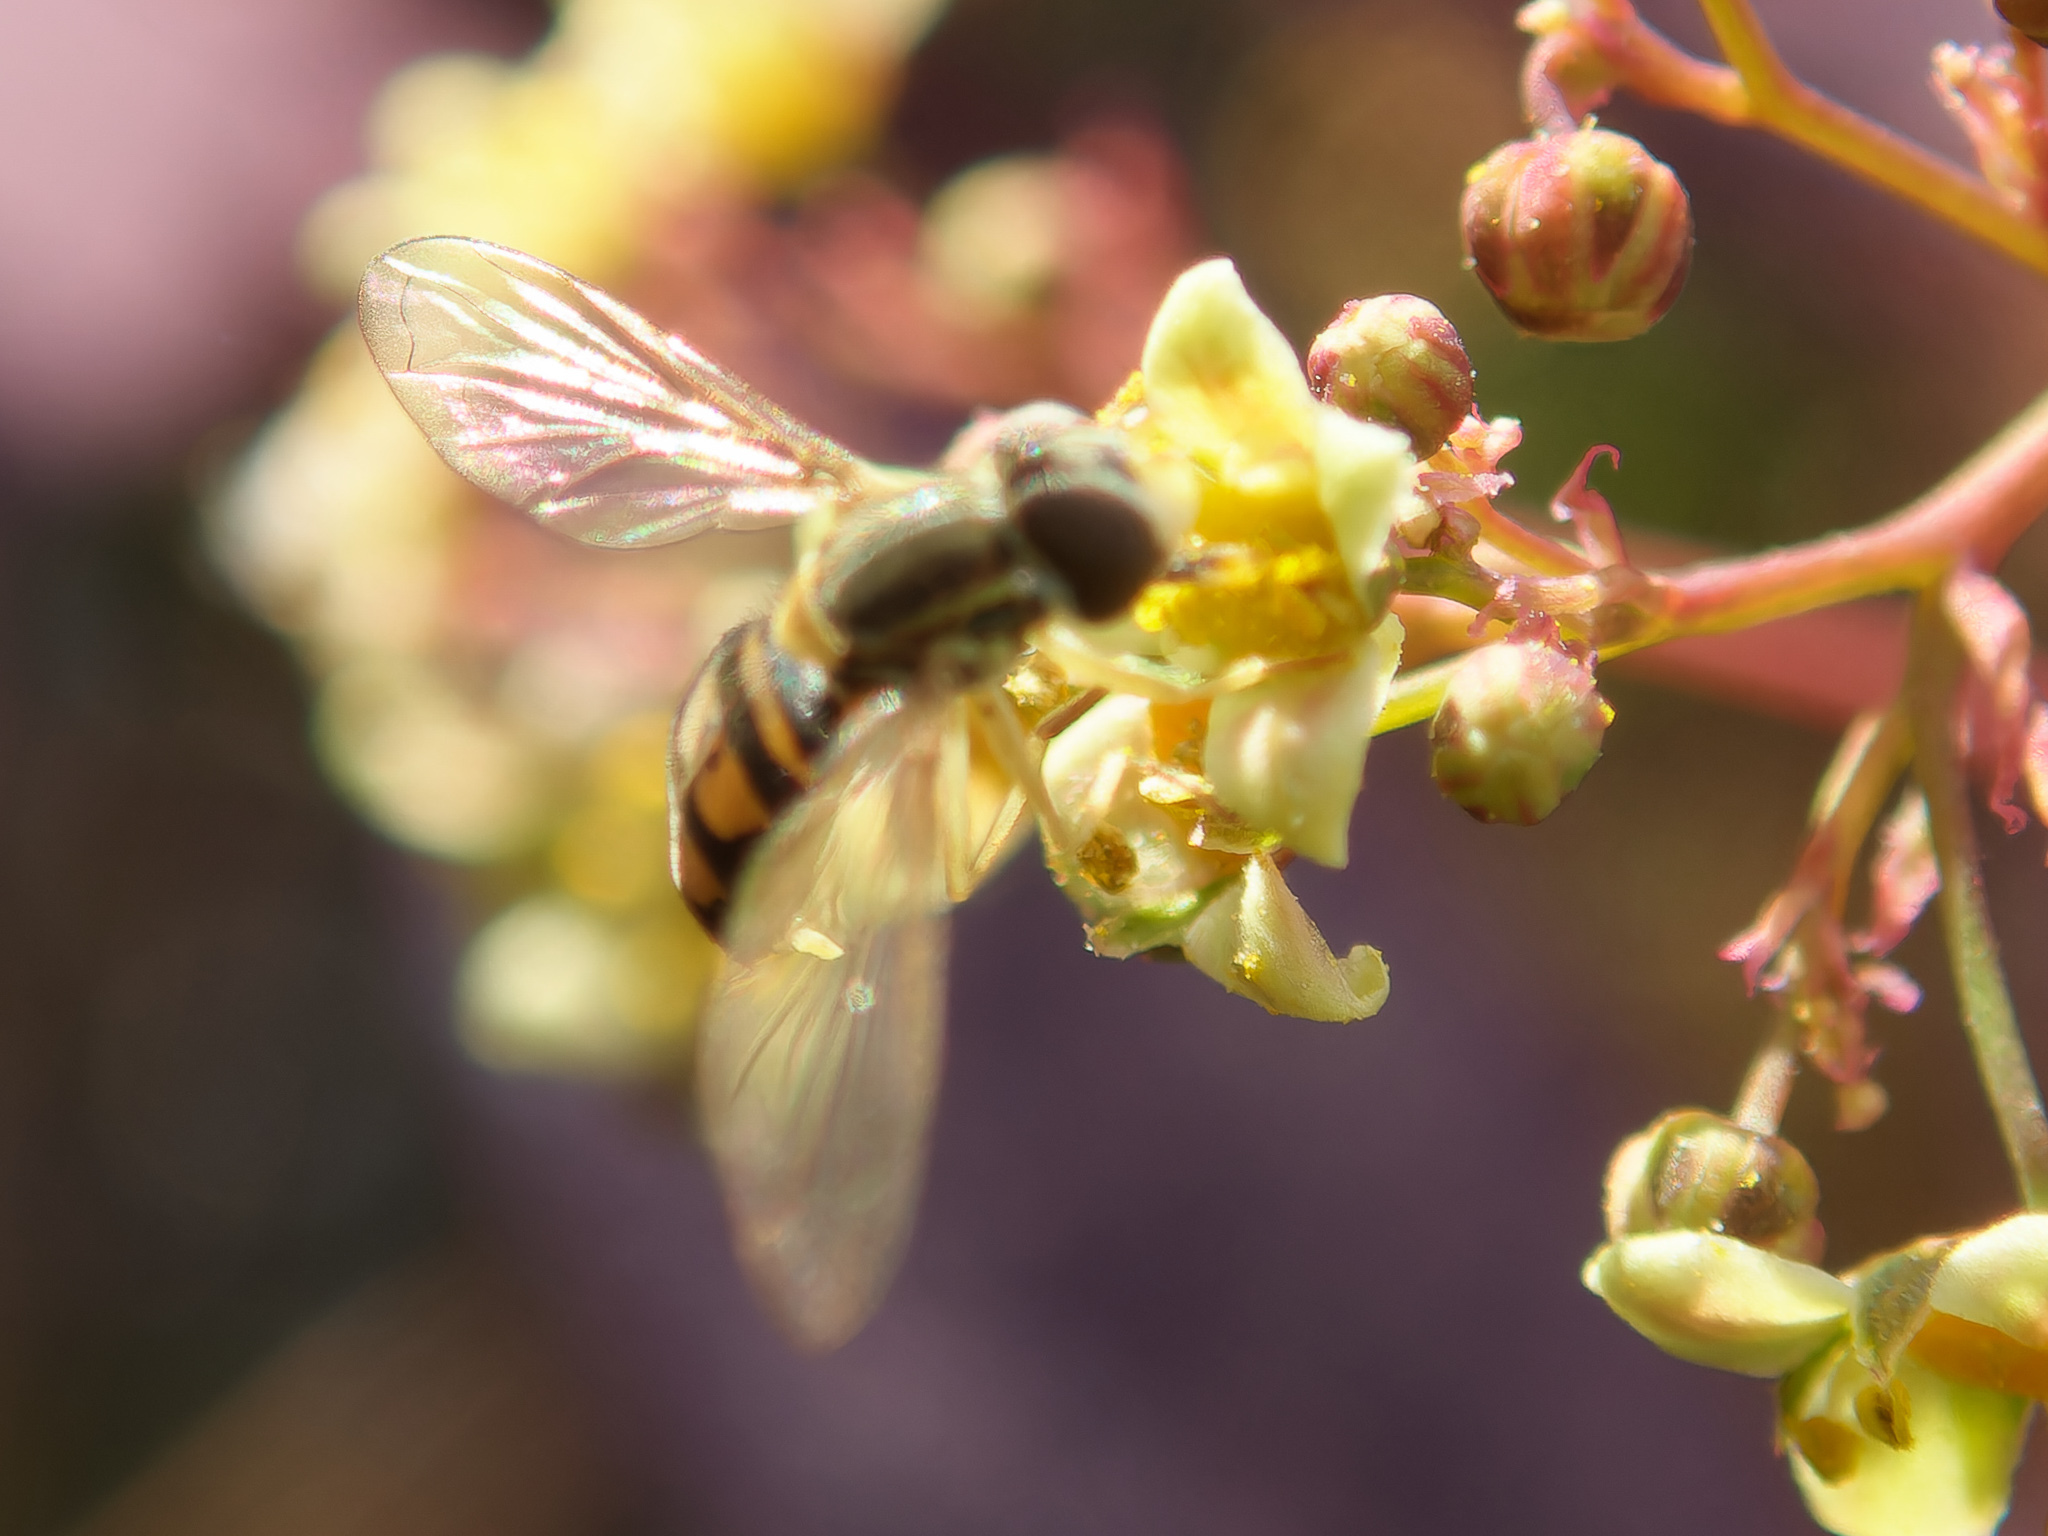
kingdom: Animalia
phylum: Arthropoda
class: Insecta
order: Diptera
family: Syrphidae
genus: Toxomerus
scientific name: Toxomerus marginatus
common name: Syrphid fly
